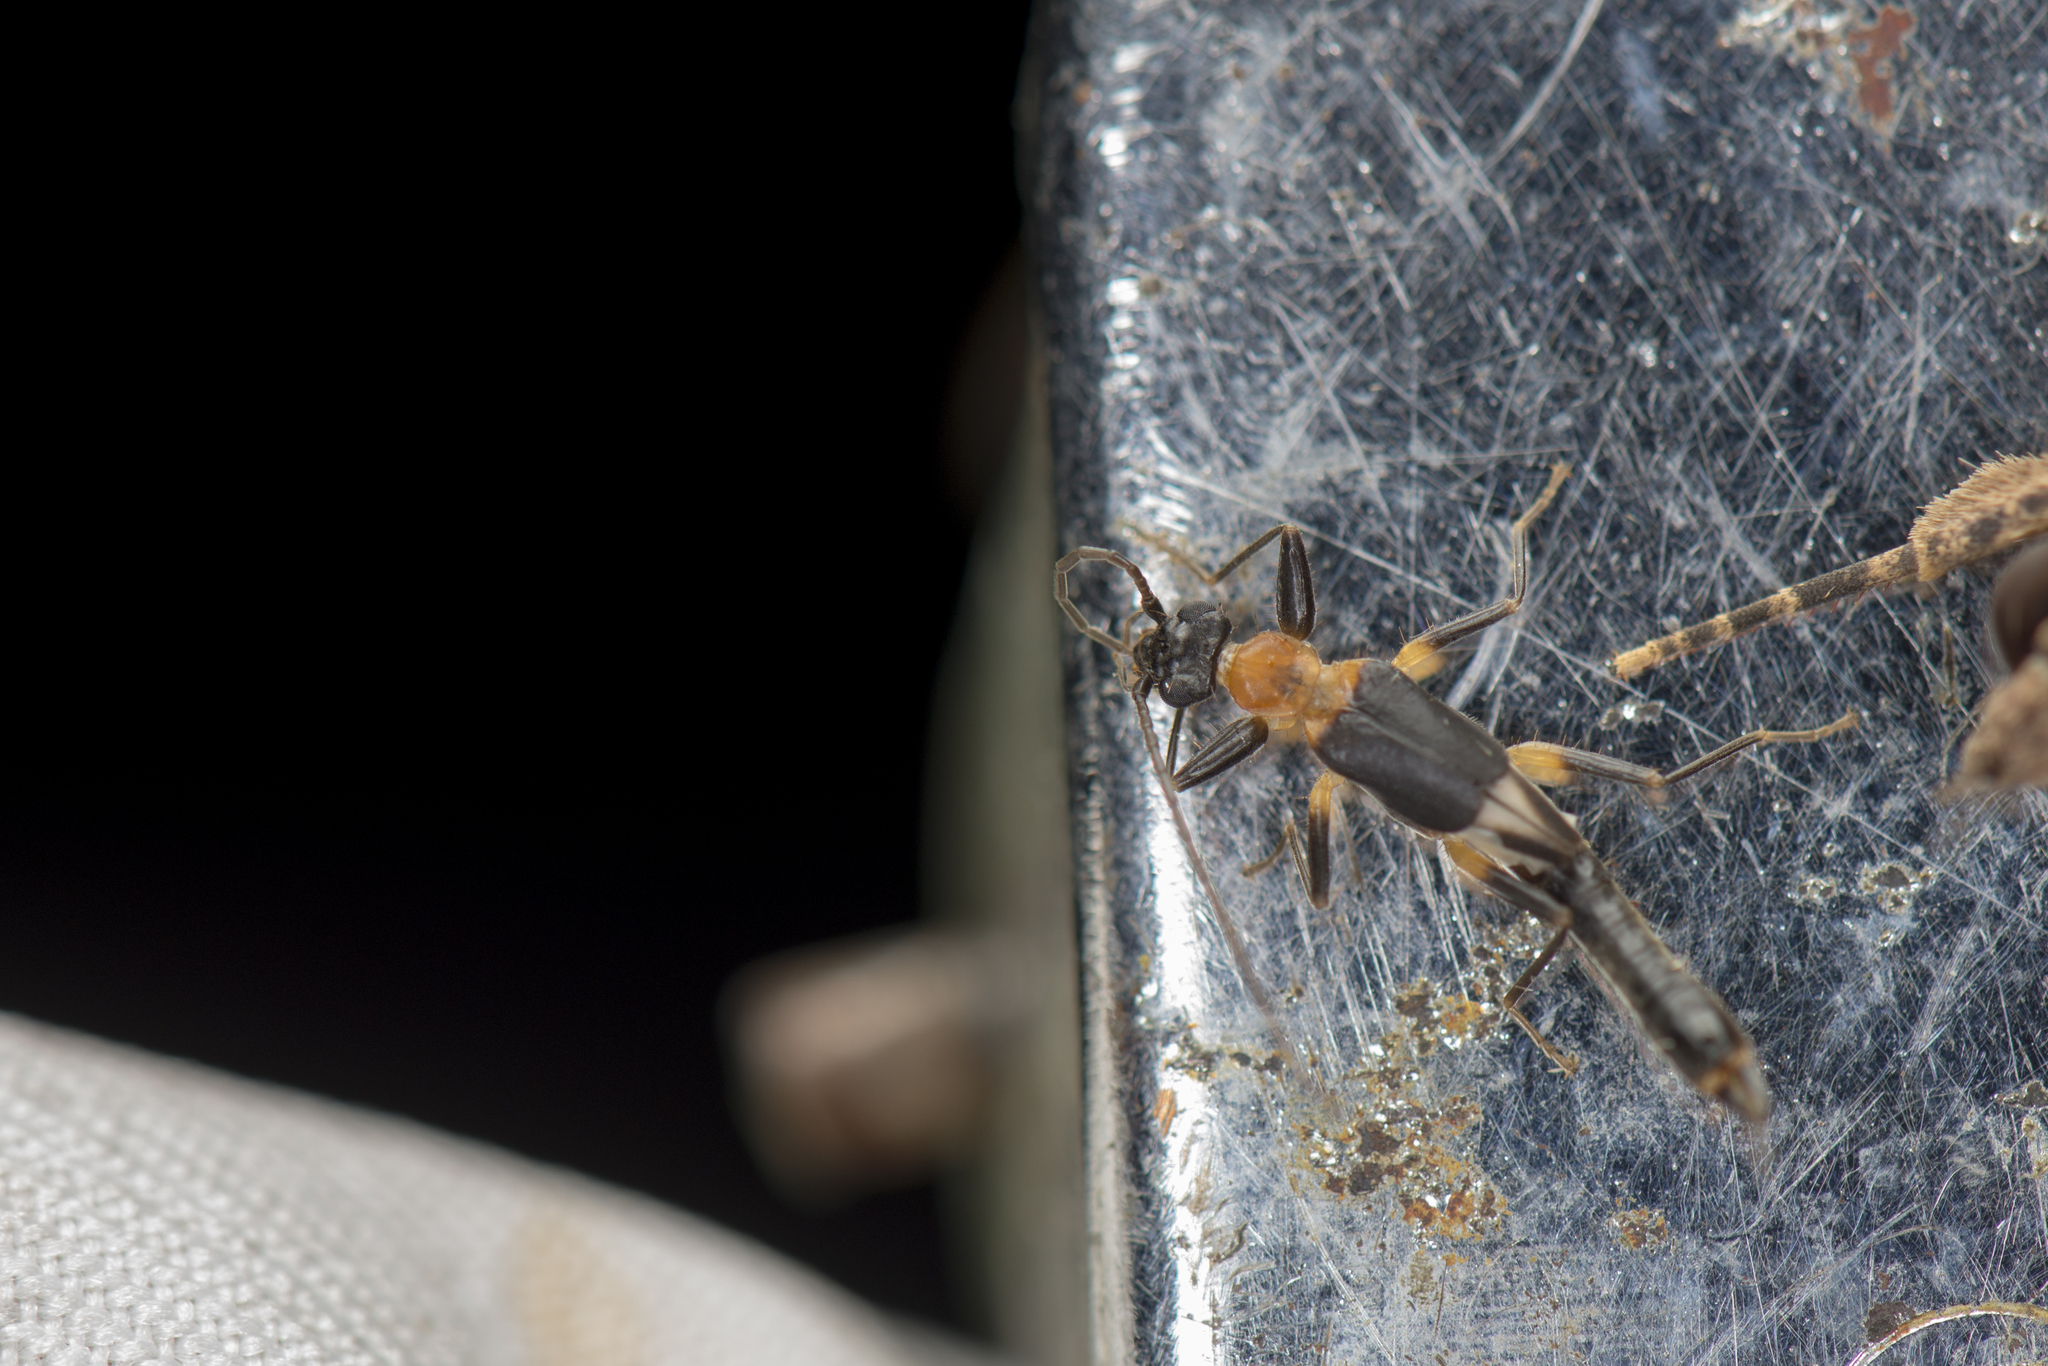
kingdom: Animalia
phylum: Arthropoda
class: Insecta
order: Dermaptera
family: Diplatyidae
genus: Diplatys
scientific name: Diplatys flavicollis
